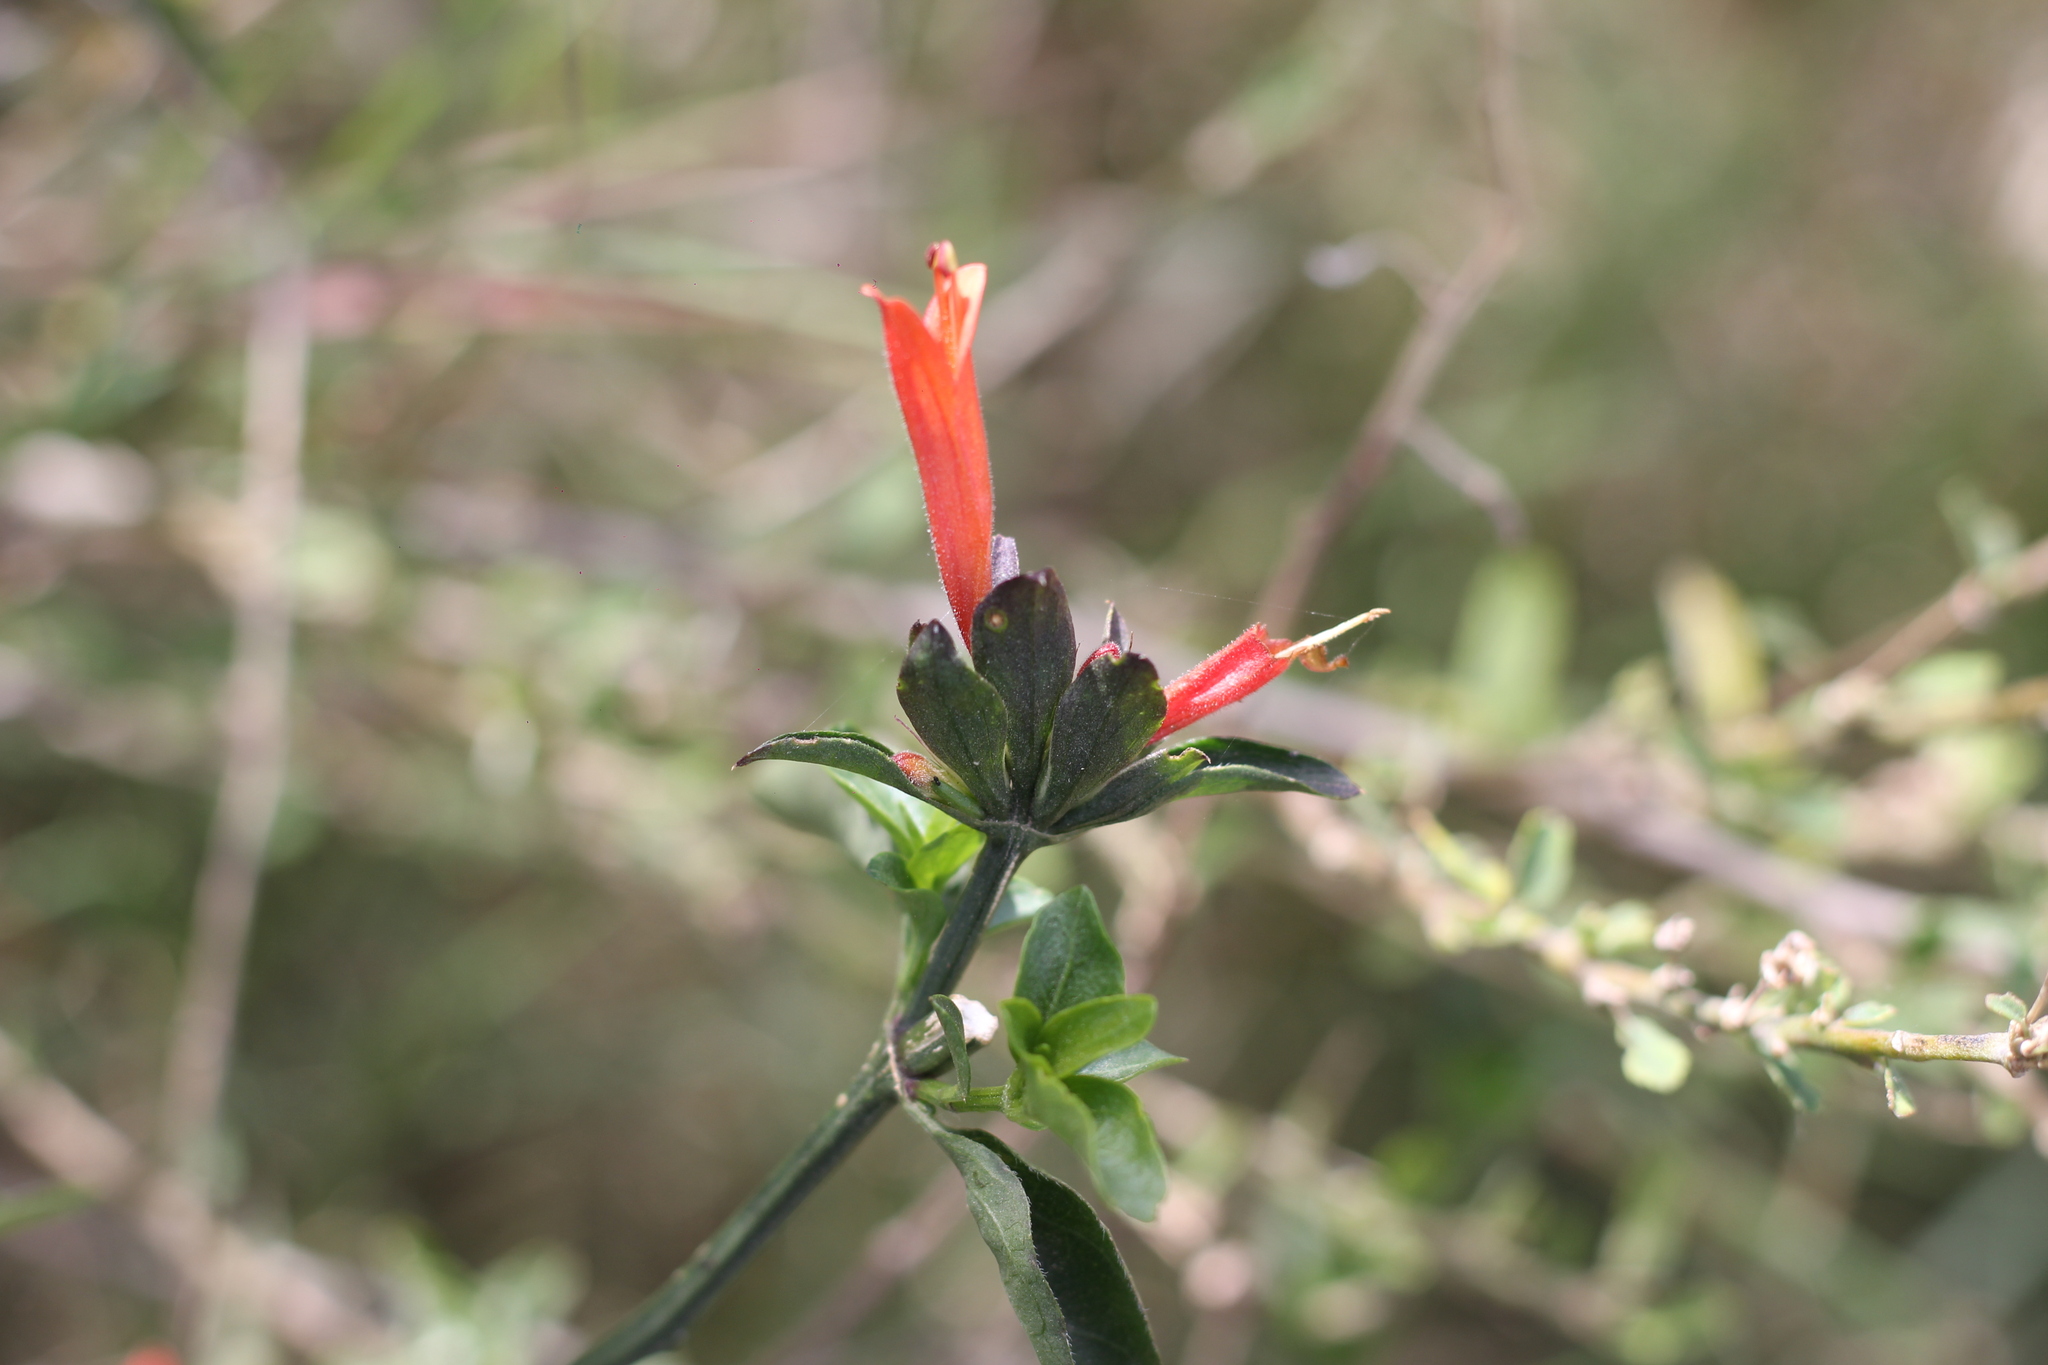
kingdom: Plantae
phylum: Tracheophyta
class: Magnoliopsida
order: Lamiales
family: Acanthaceae
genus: Dicliptera
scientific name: Dicliptera squarrosa
